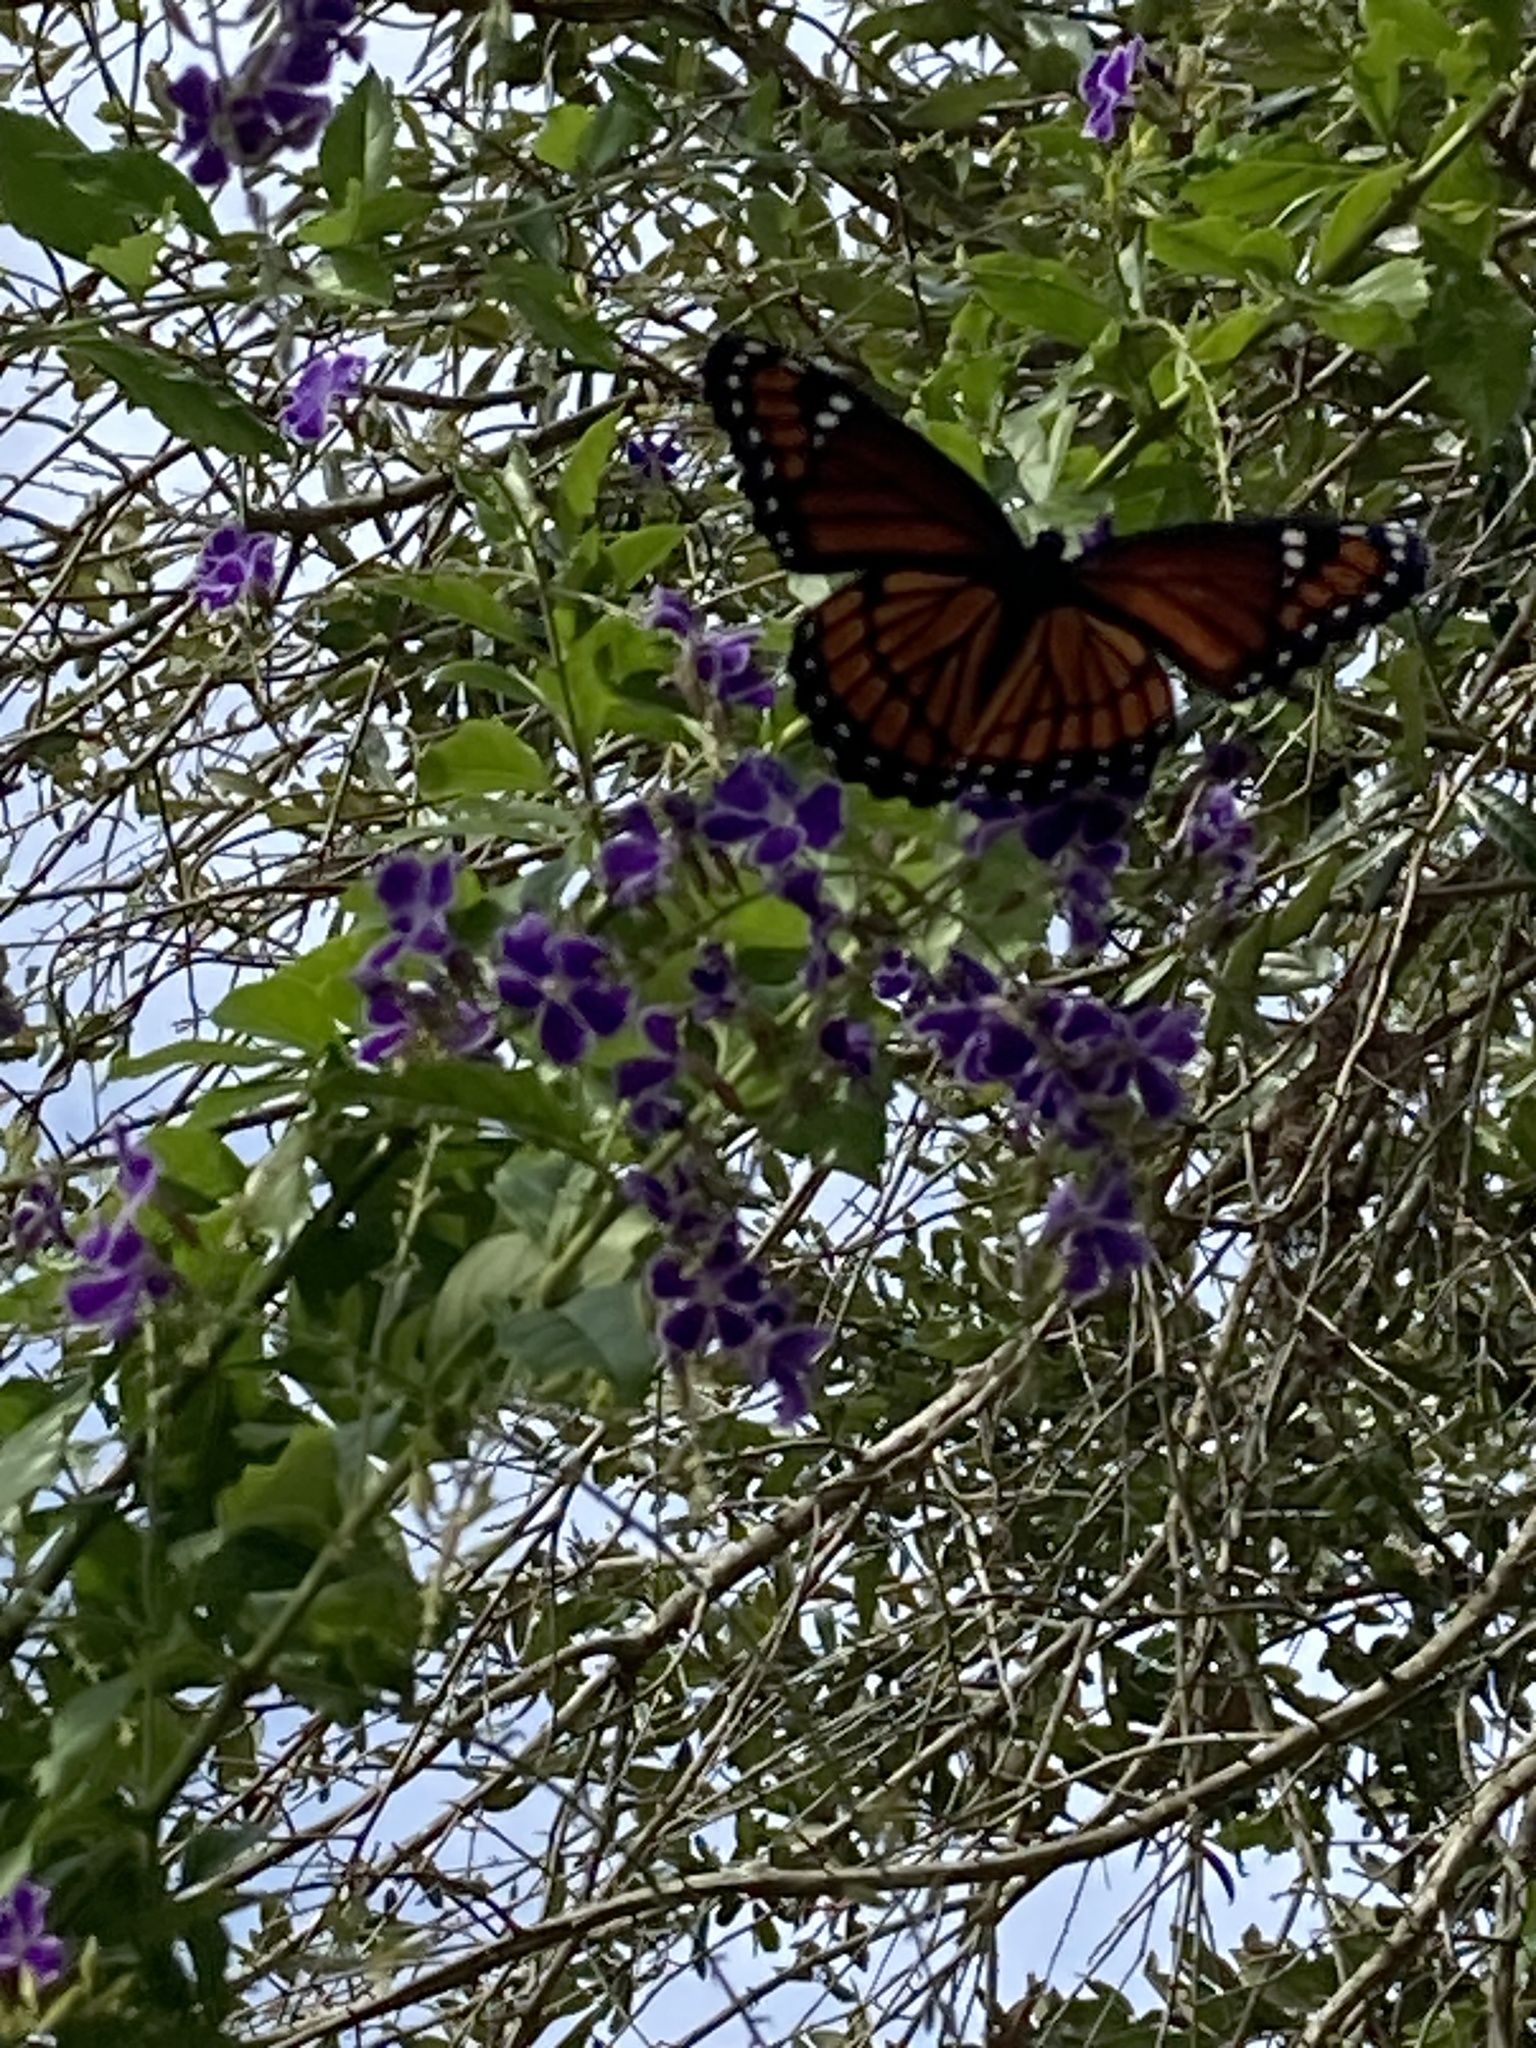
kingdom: Animalia
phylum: Arthropoda
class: Insecta
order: Lepidoptera
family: Nymphalidae
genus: Limenitis
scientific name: Limenitis archippus
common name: Viceroy
